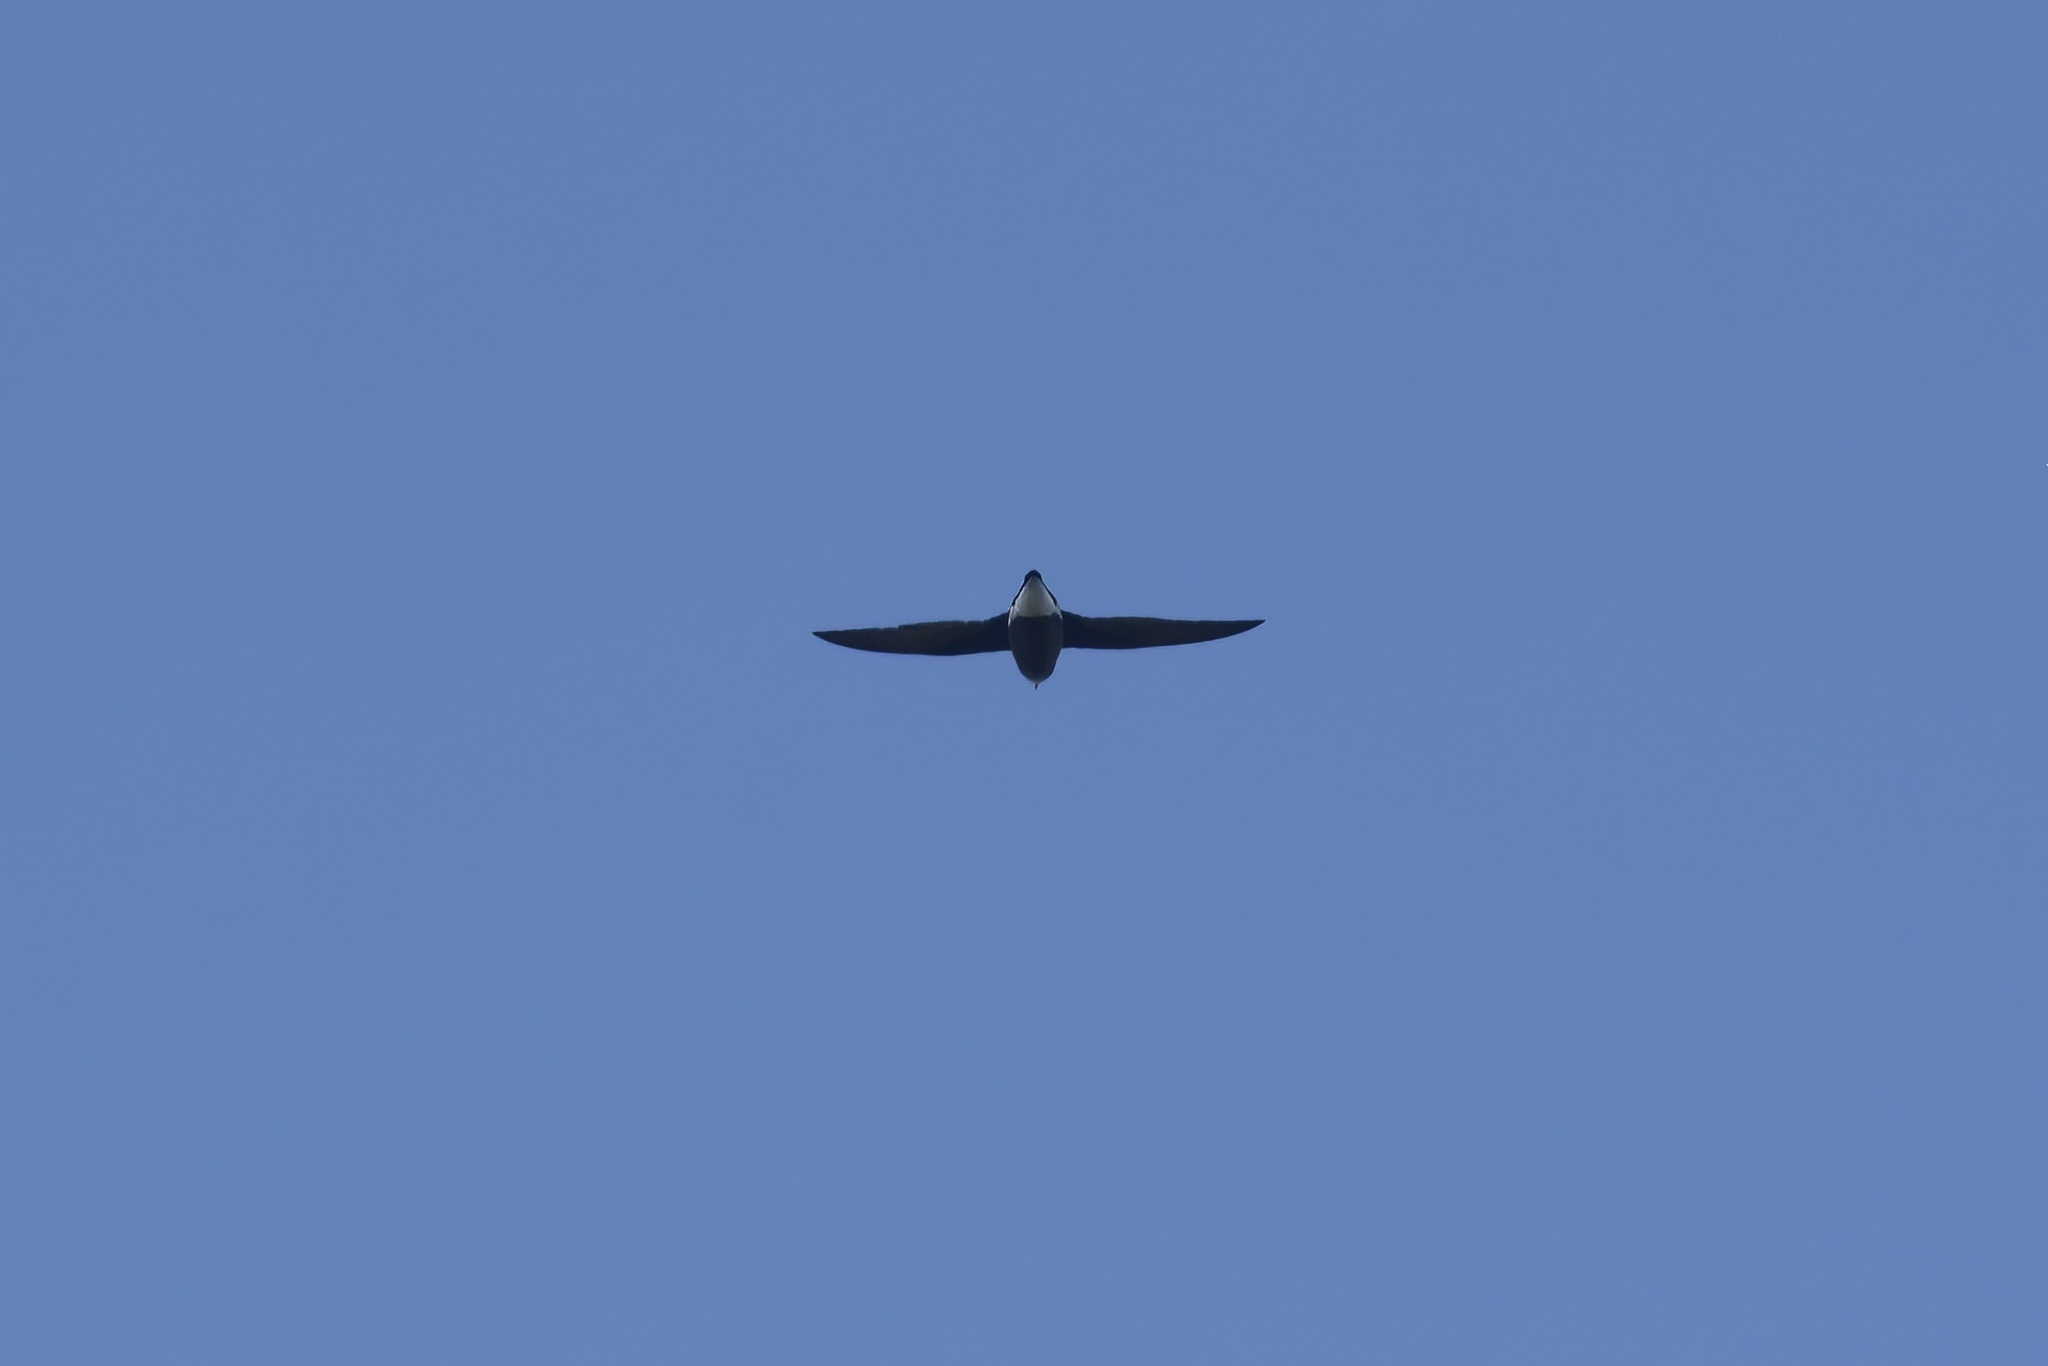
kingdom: Animalia
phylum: Chordata
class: Aves
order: Apodiformes
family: Apodidae
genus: Hirundapus
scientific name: Hirundapus caudacutus
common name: White-throated needletail
